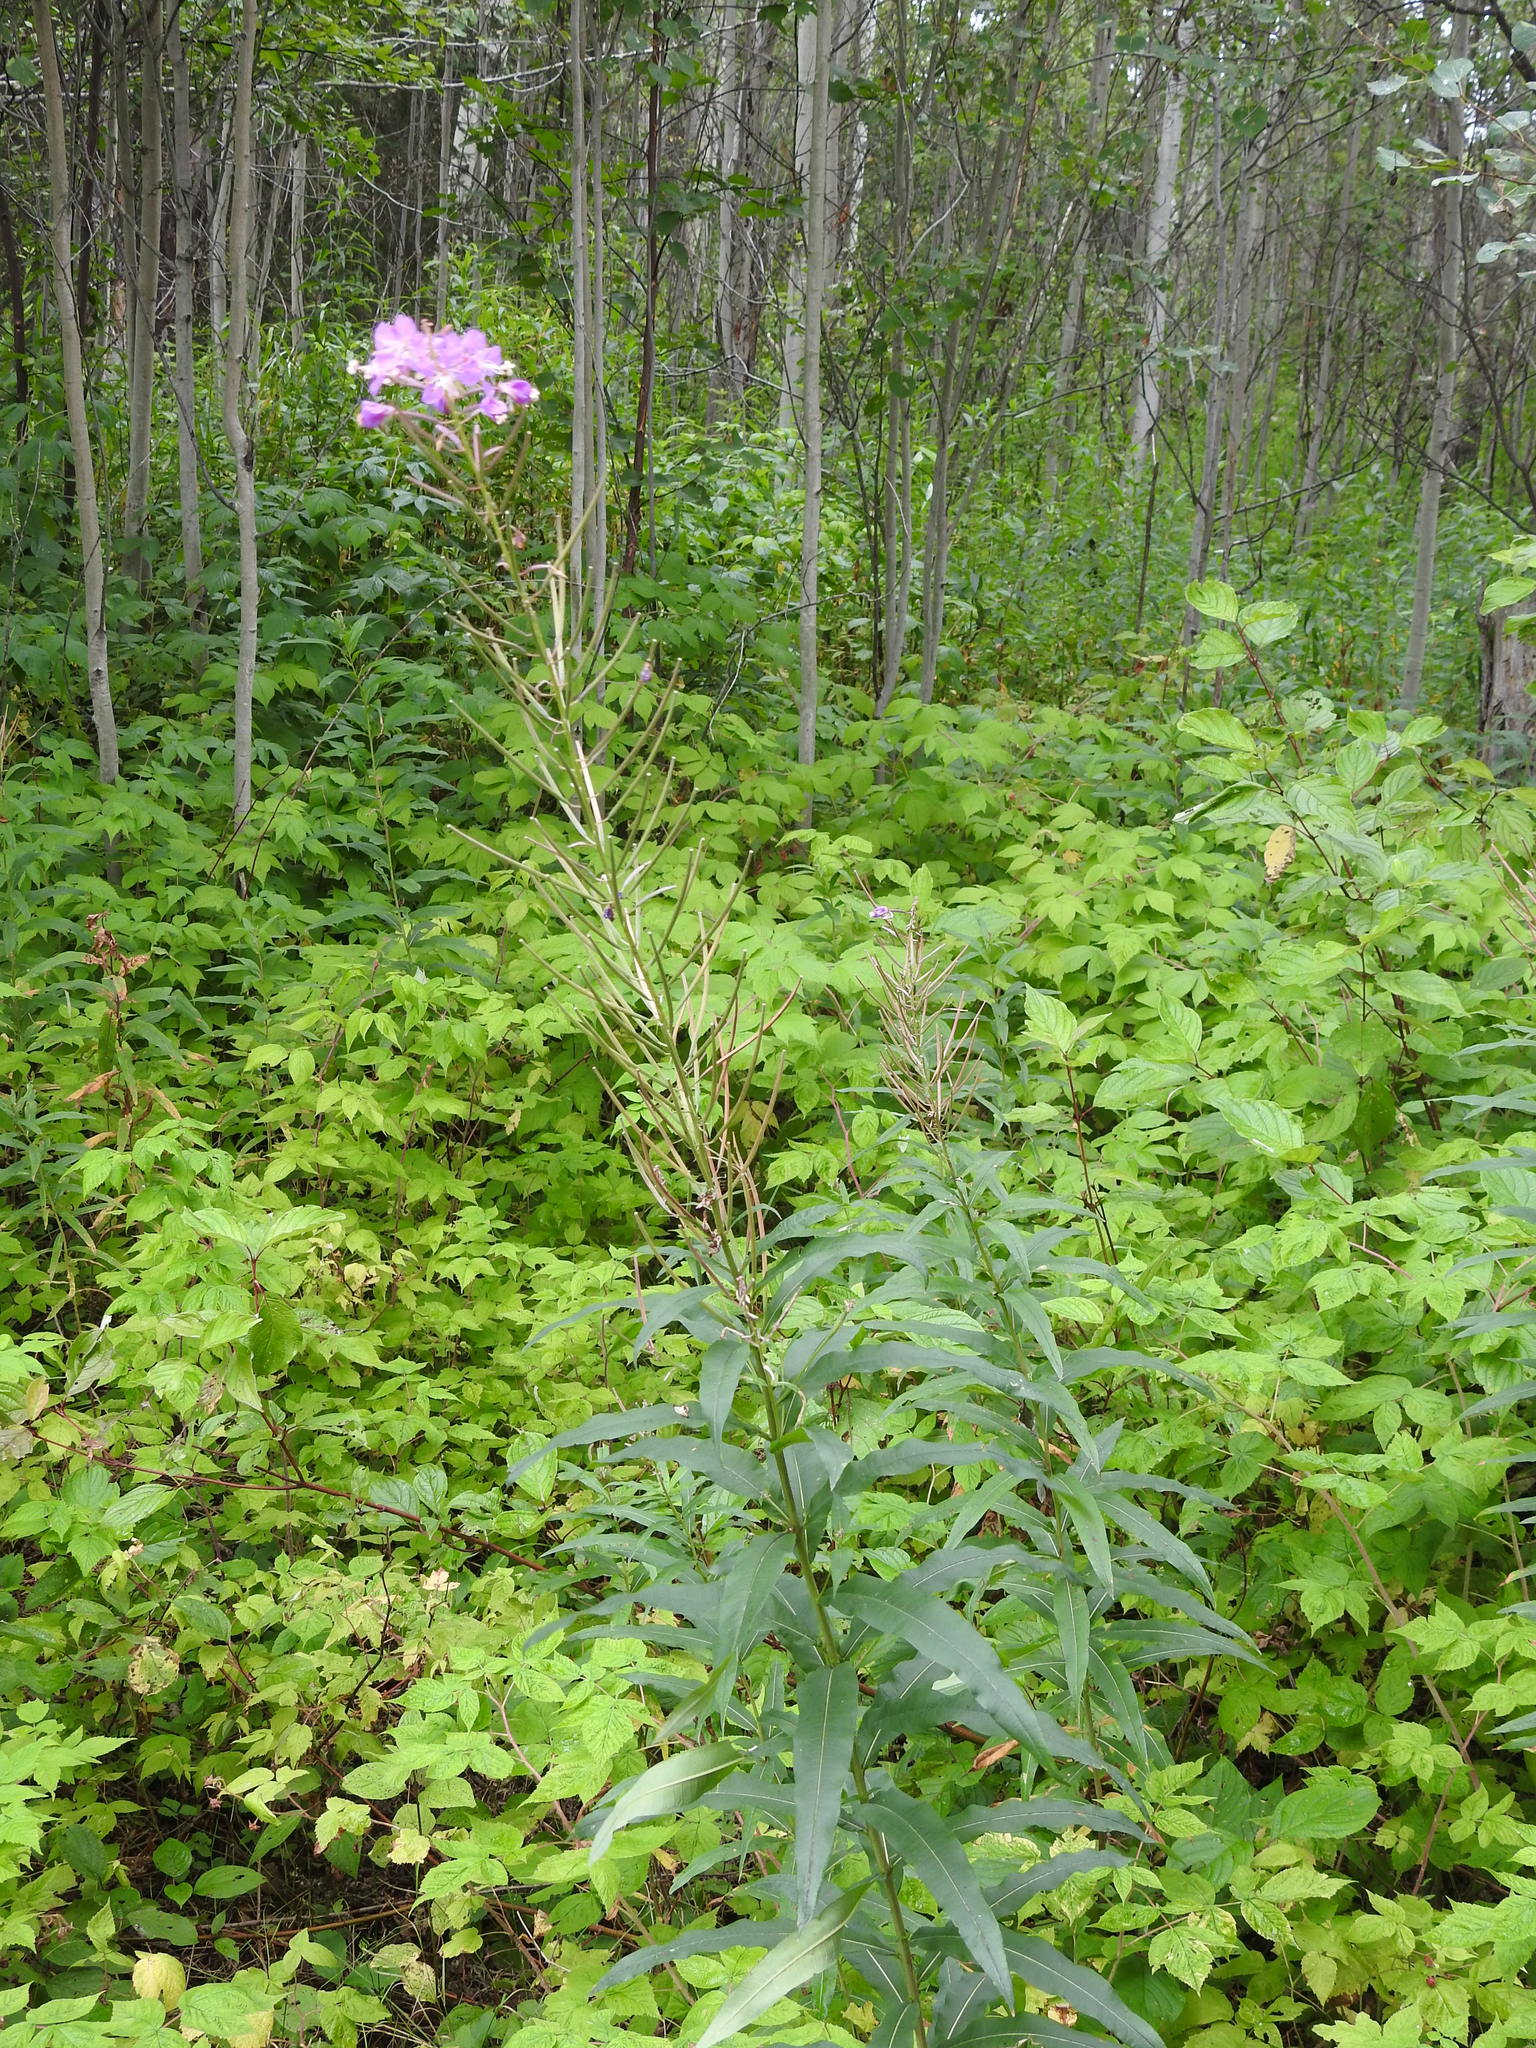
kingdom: Plantae
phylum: Tracheophyta
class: Magnoliopsida
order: Myrtales
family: Onagraceae
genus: Chamaenerion
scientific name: Chamaenerion angustifolium
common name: Fireweed
